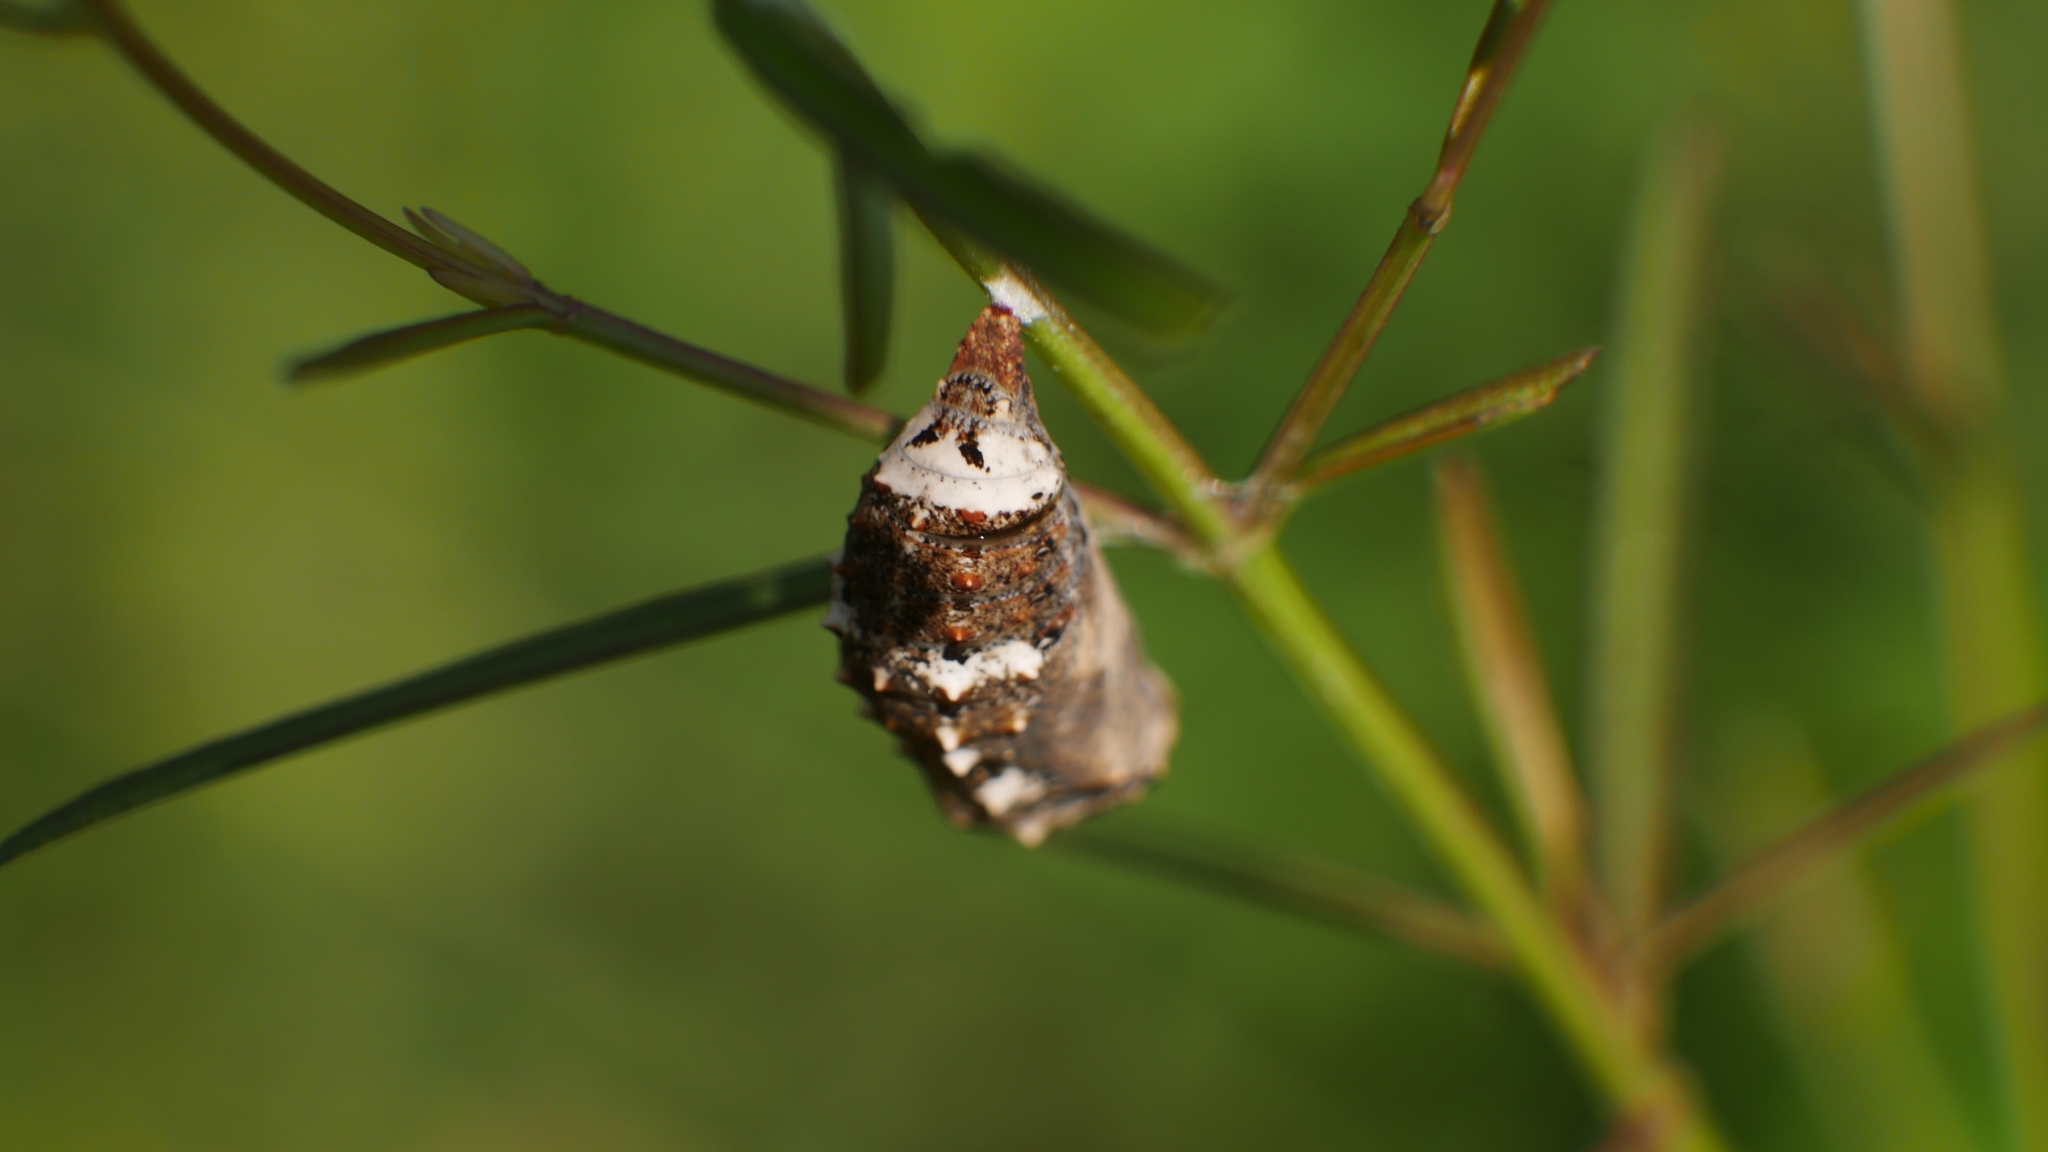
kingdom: Animalia
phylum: Arthropoda
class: Insecta
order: Lepidoptera
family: Nymphalidae
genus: Junonia
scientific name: Junonia coenia
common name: Common buckeye
